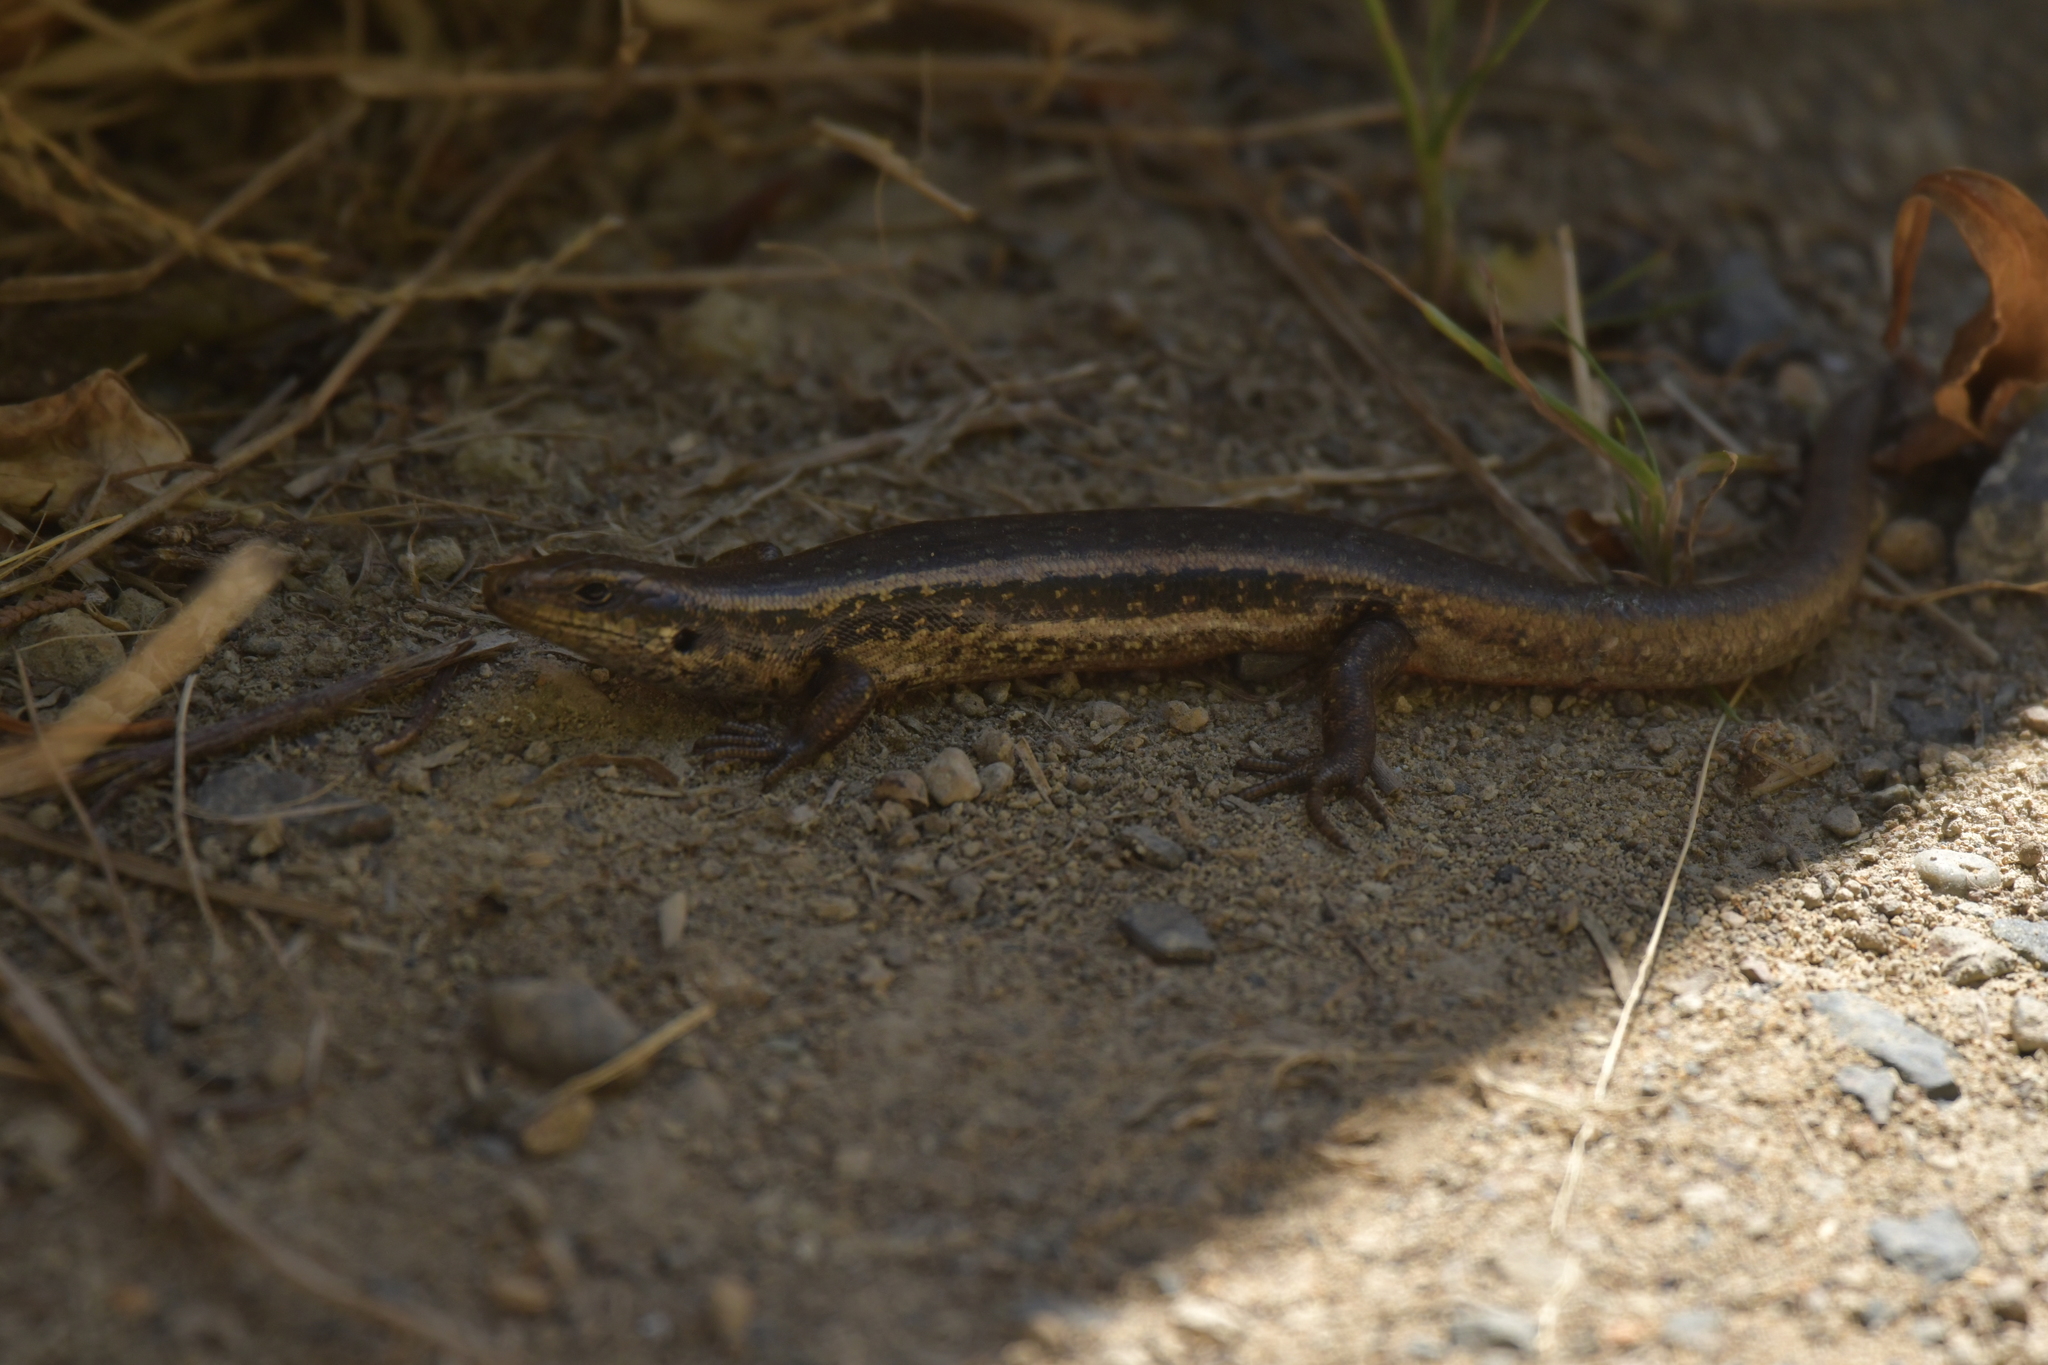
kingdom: Animalia
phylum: Chordata
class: Squamata
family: Scincidae
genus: Oligosoma
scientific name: Oligosoma kokowai
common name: Northern spotted skink
